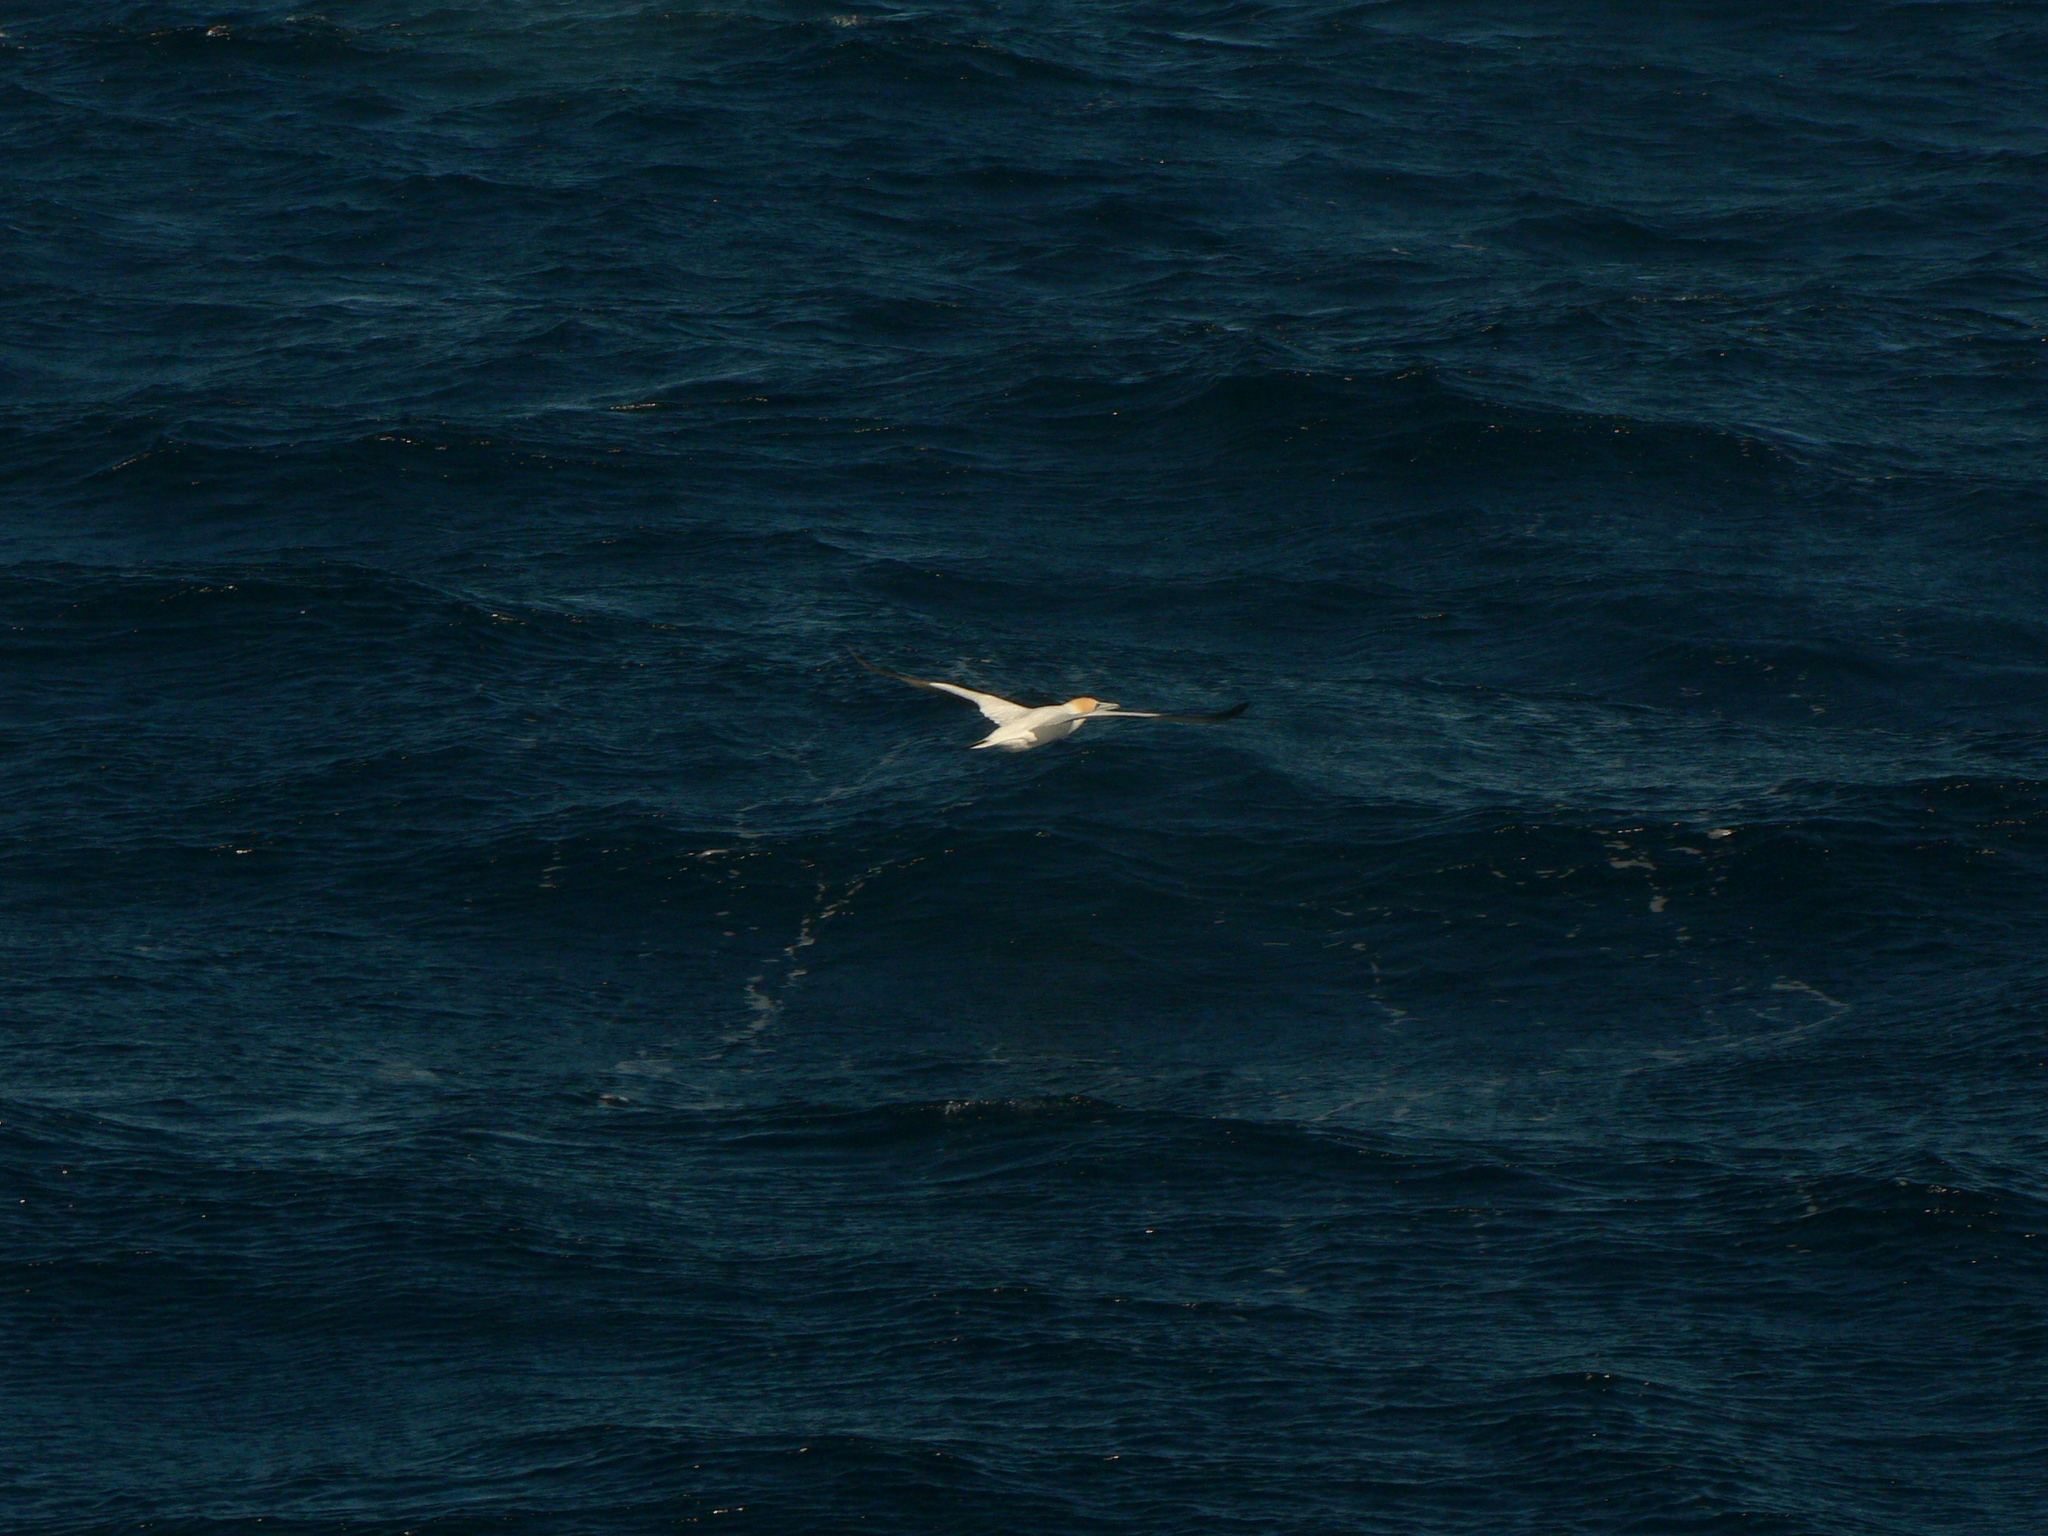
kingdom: Animalia
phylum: Chordata
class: Aves
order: Suliformes
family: Sulidae
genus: Morus
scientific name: Morus serrator
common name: Australasian gannet
